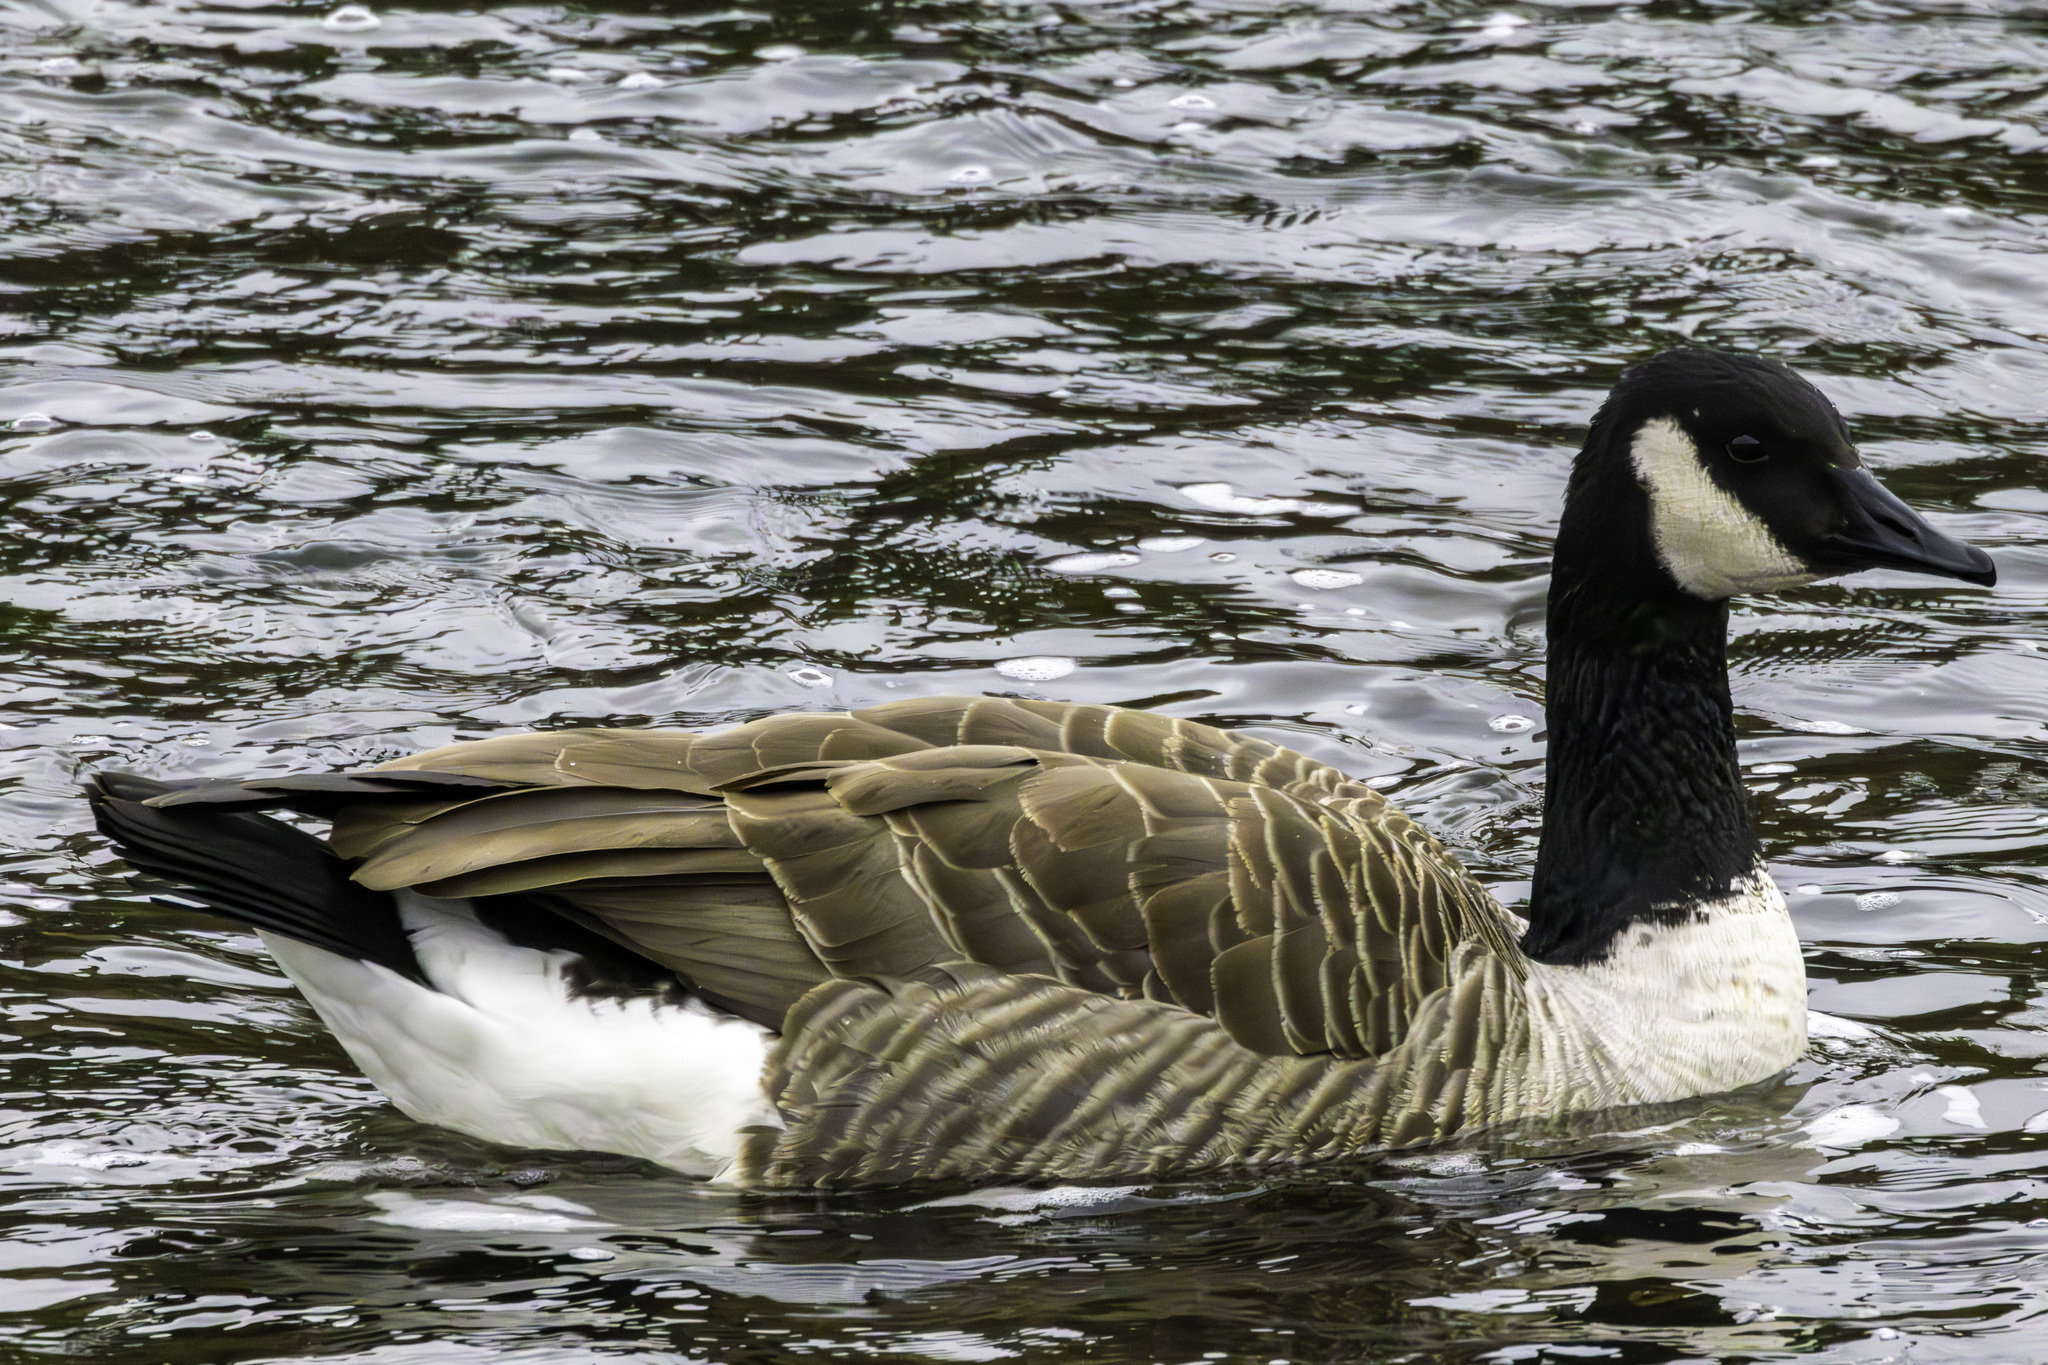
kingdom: Animalia
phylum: Chordata
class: Aves
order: Anseriformes
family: Anatidae
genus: Branta
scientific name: Branta canadensis
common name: Canada goose
